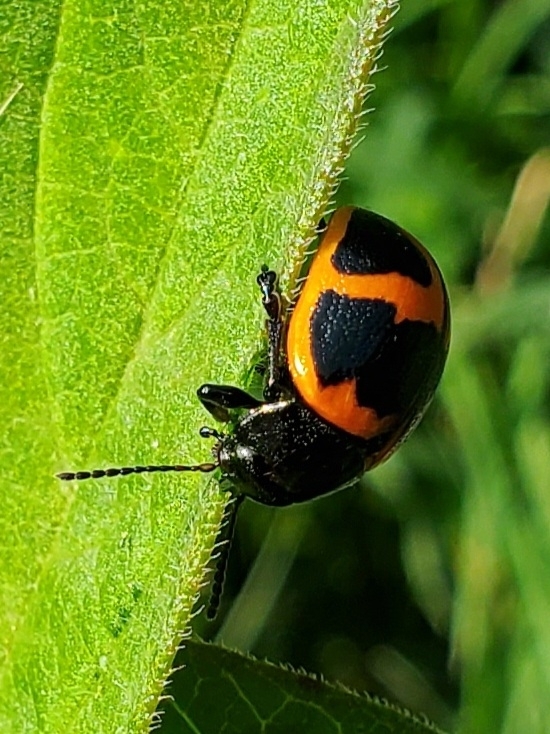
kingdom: Animalia
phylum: Arthropoda
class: Insecta
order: Coleoptera
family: Chrysomelidae
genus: Labidomera
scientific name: Labidomera clivicollis
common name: Swamp milkweed leaf beetle
